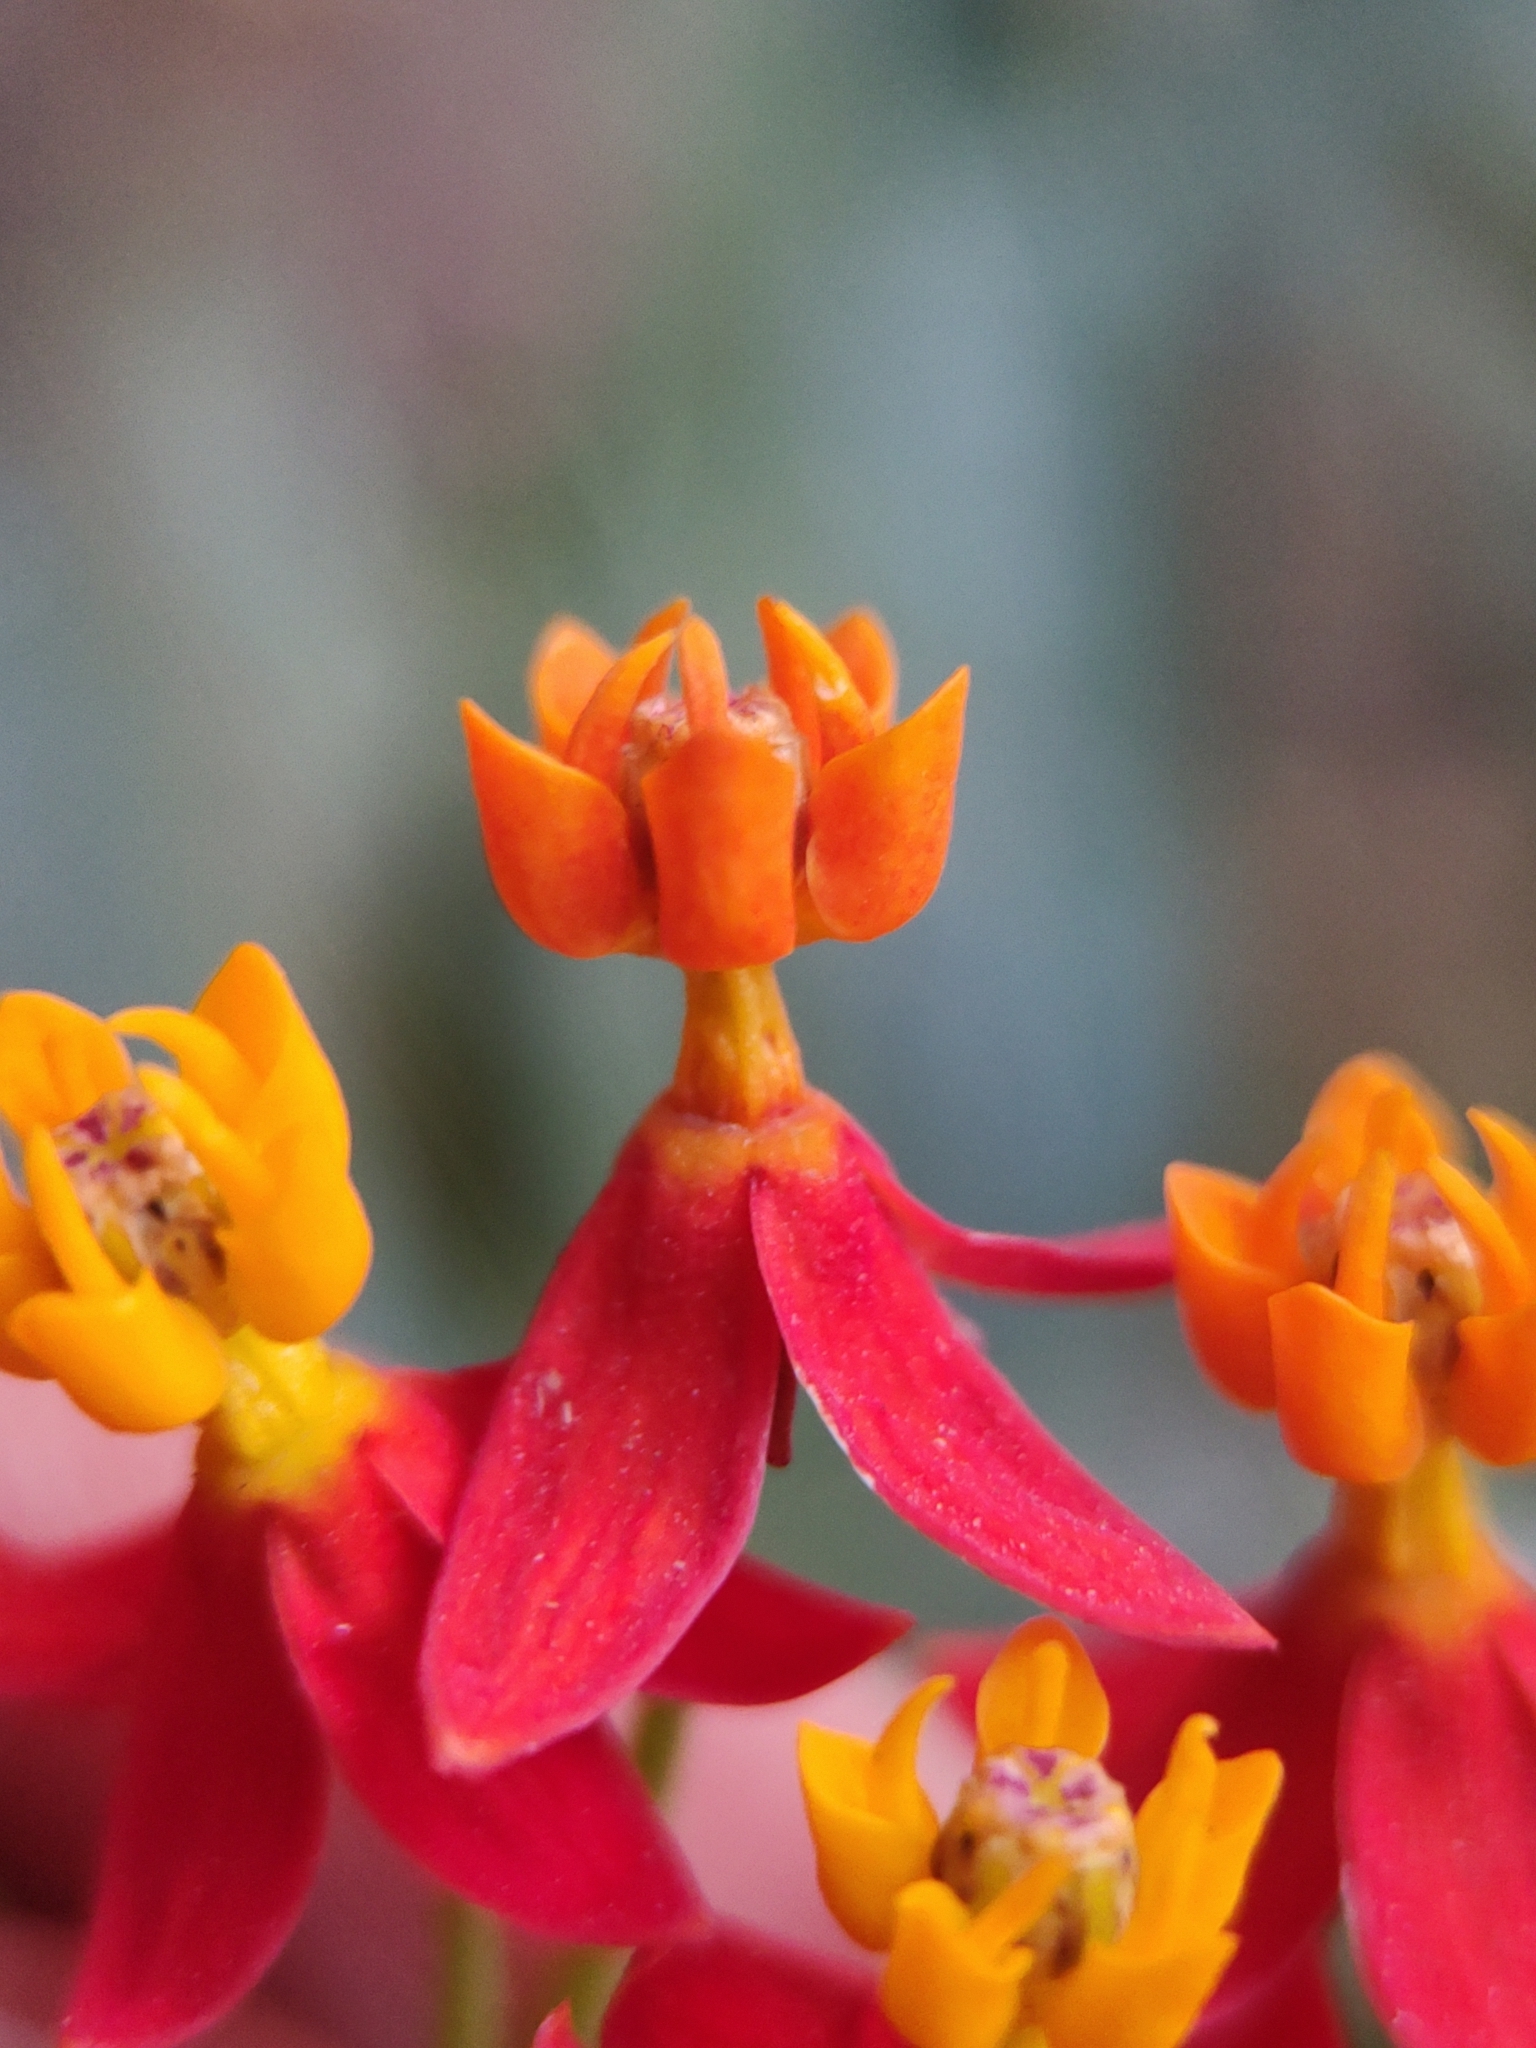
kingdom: Plantae
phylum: Tracheophyta
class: Magnoliopsida
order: Gentianales
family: Apocynaceae
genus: Asclepias
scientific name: Asclepias curassavica
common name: Bloodflower
